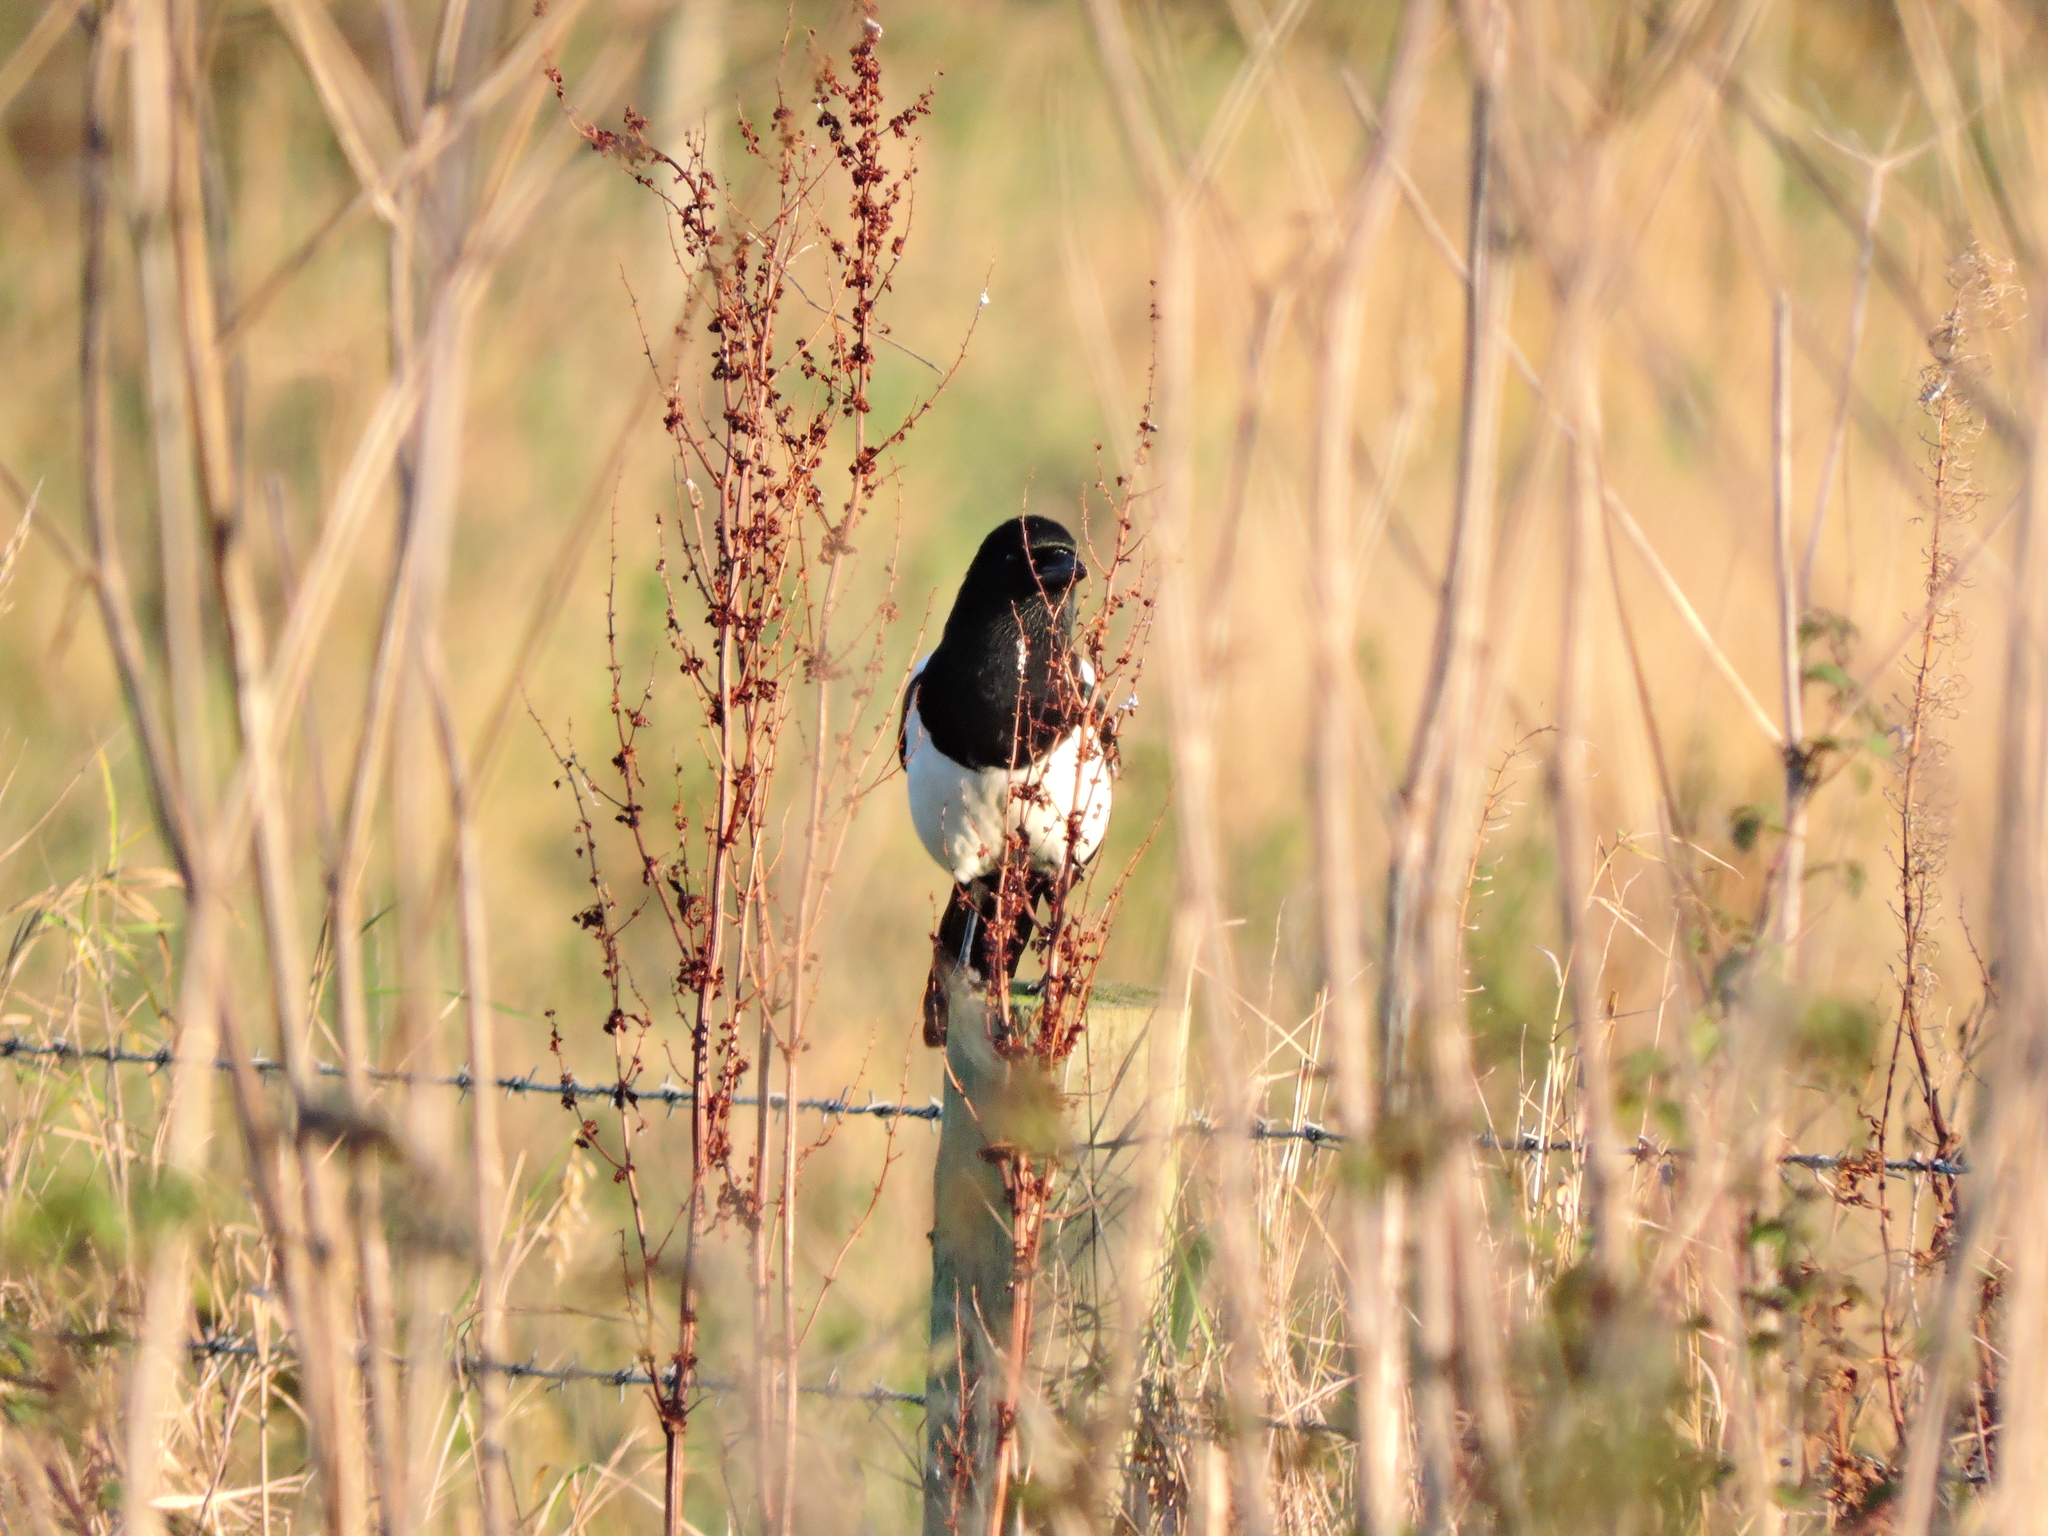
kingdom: Animalia
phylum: Chordata
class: Aves
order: Passeriformes
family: Corvidae
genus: Pica
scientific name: Pica pica
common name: Eurasian magpie
